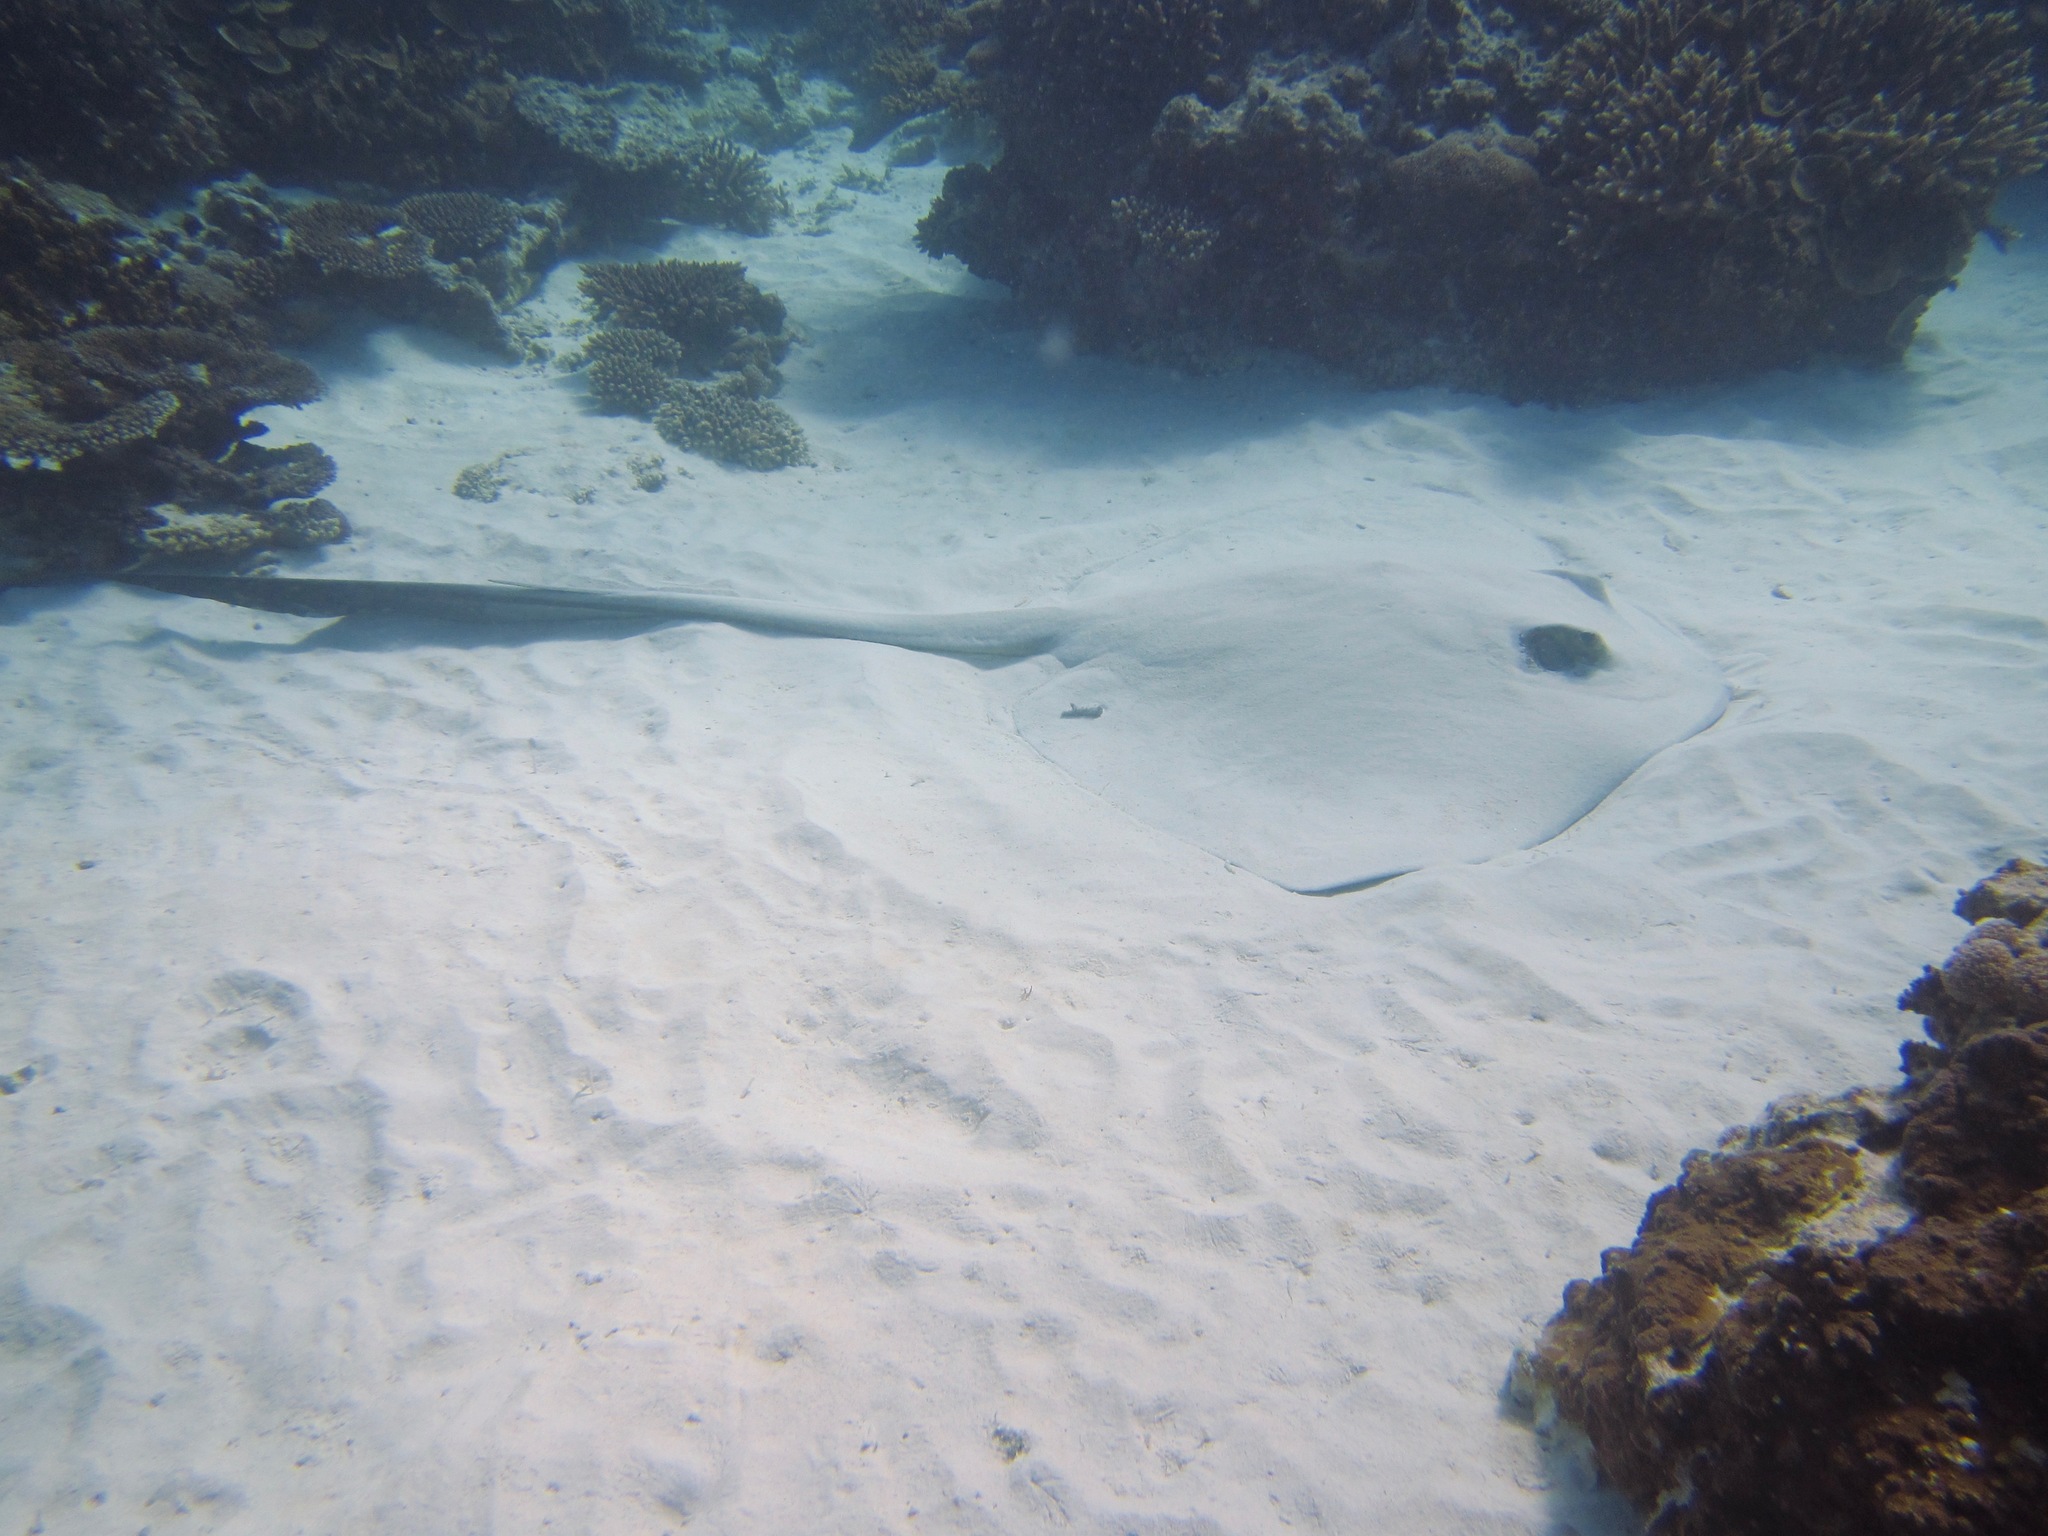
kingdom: Animalia
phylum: Chordata
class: Elasmobranchii
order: Myliobatiformes
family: Dasyatidae
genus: Pastinachus
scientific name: Pastinachus ater
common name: Banana-tail ray
